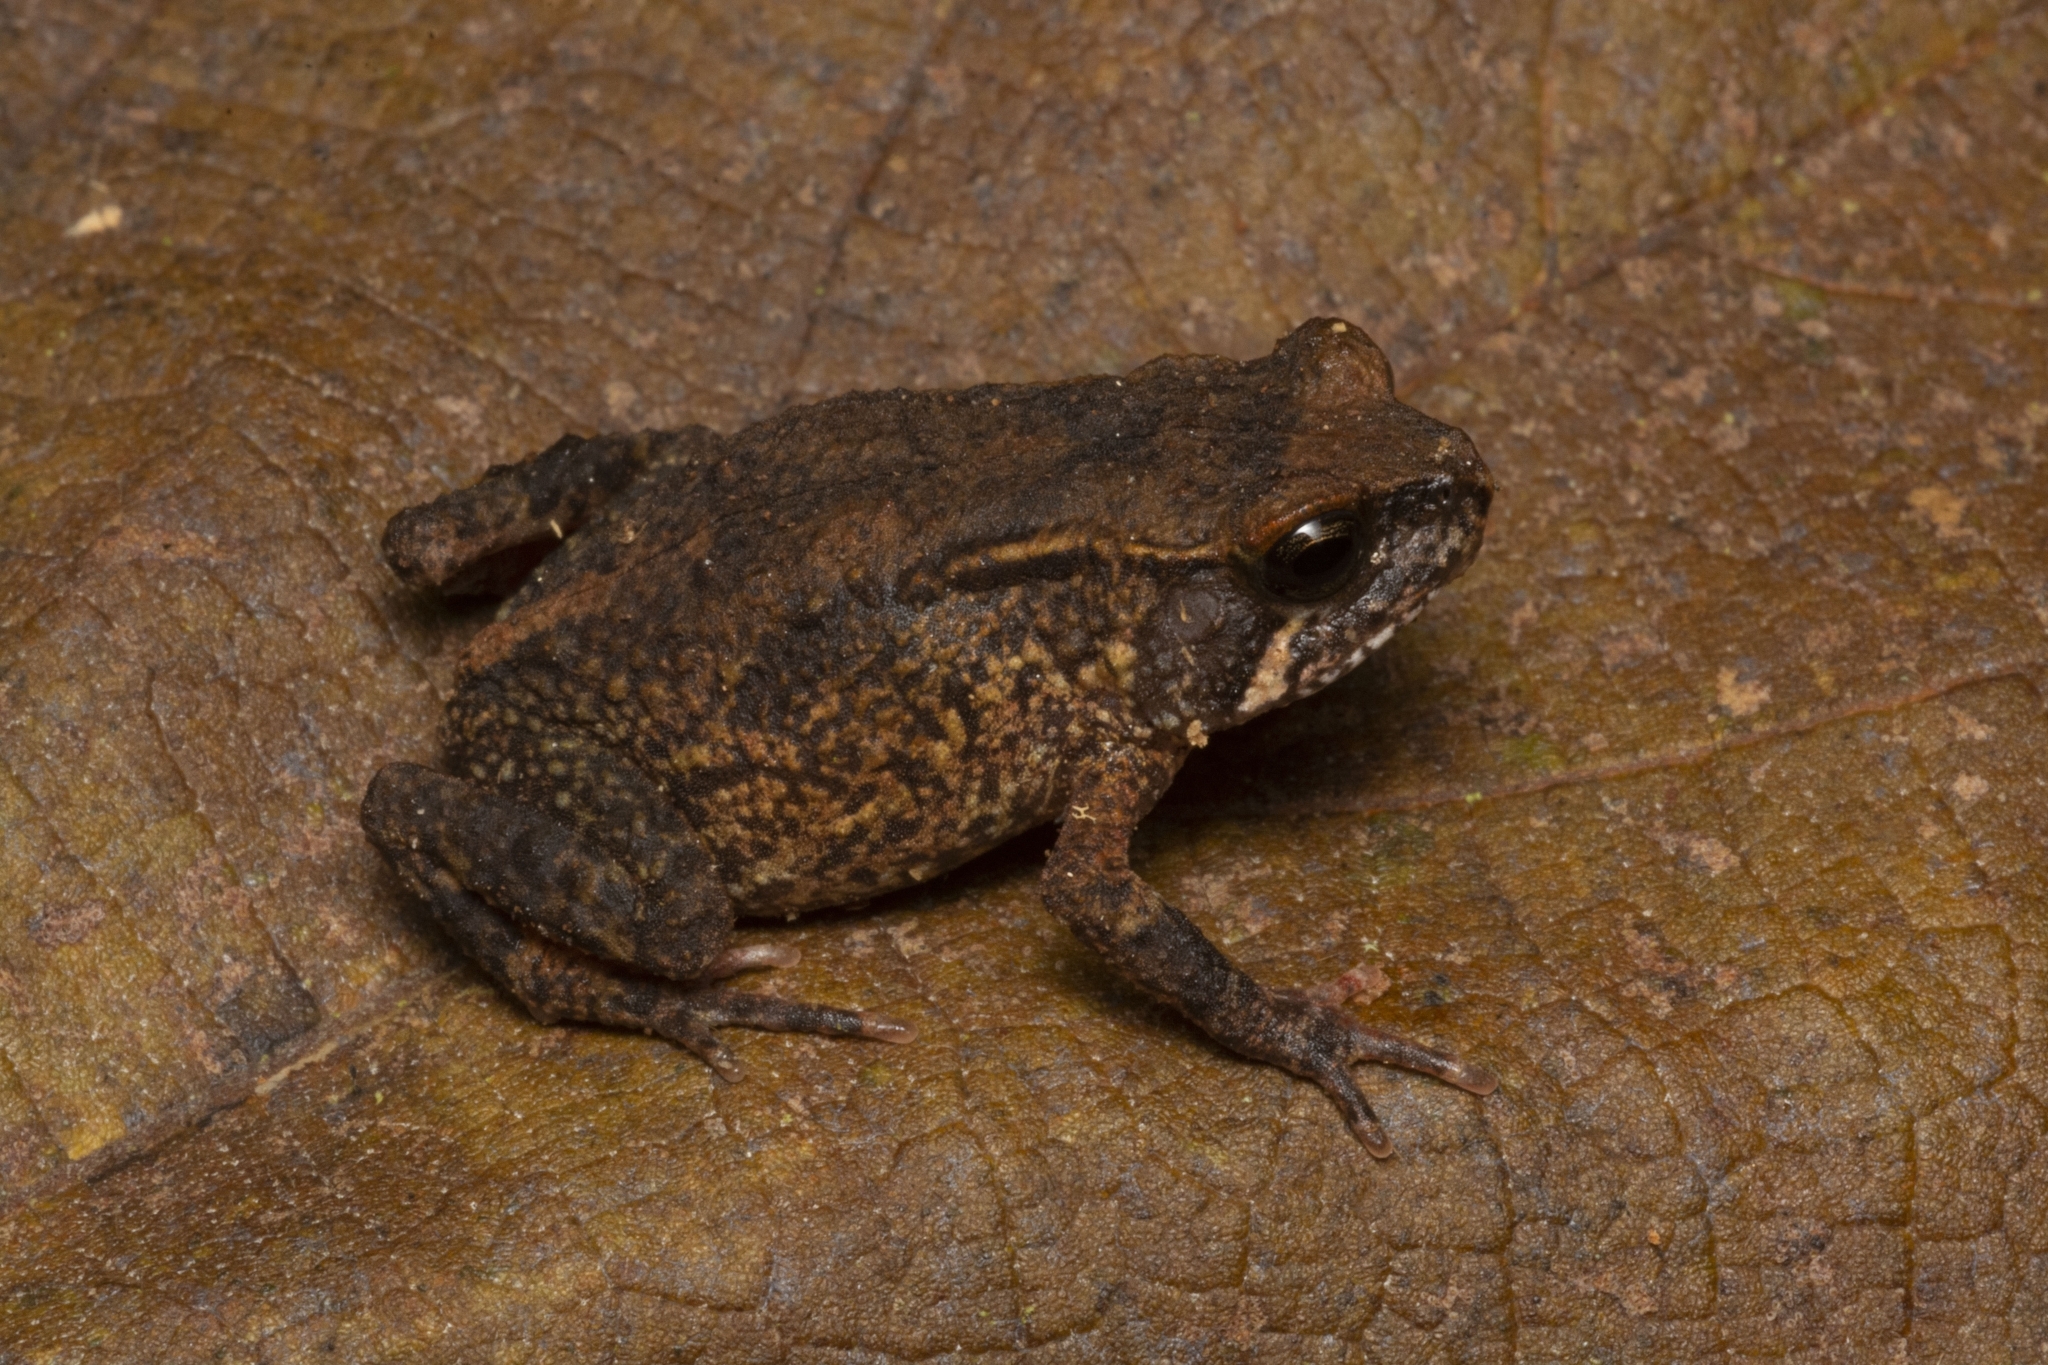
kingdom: Animalia
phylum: Chordata
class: Amphibia
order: Anura
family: Bufonidae
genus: Nectophrynoides
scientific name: Nectophrynoides laticeps
